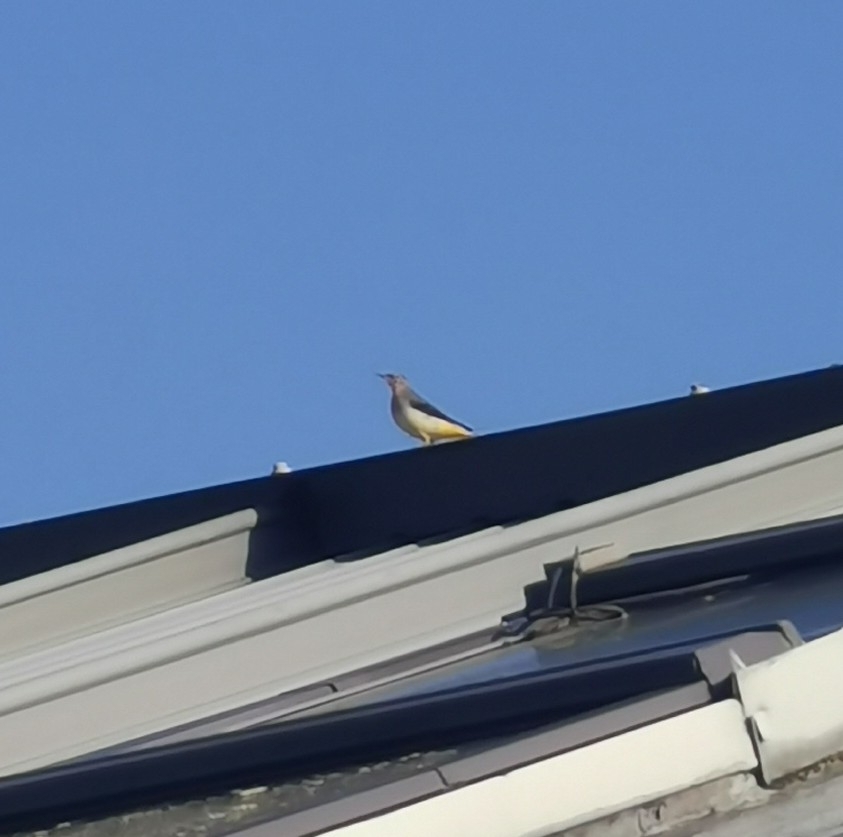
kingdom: Animalia
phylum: Chordata
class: Aves
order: Passeriformes
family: Motacillidae
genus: Motacilla
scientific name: Motacilla cinerea
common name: Grey wagtail
